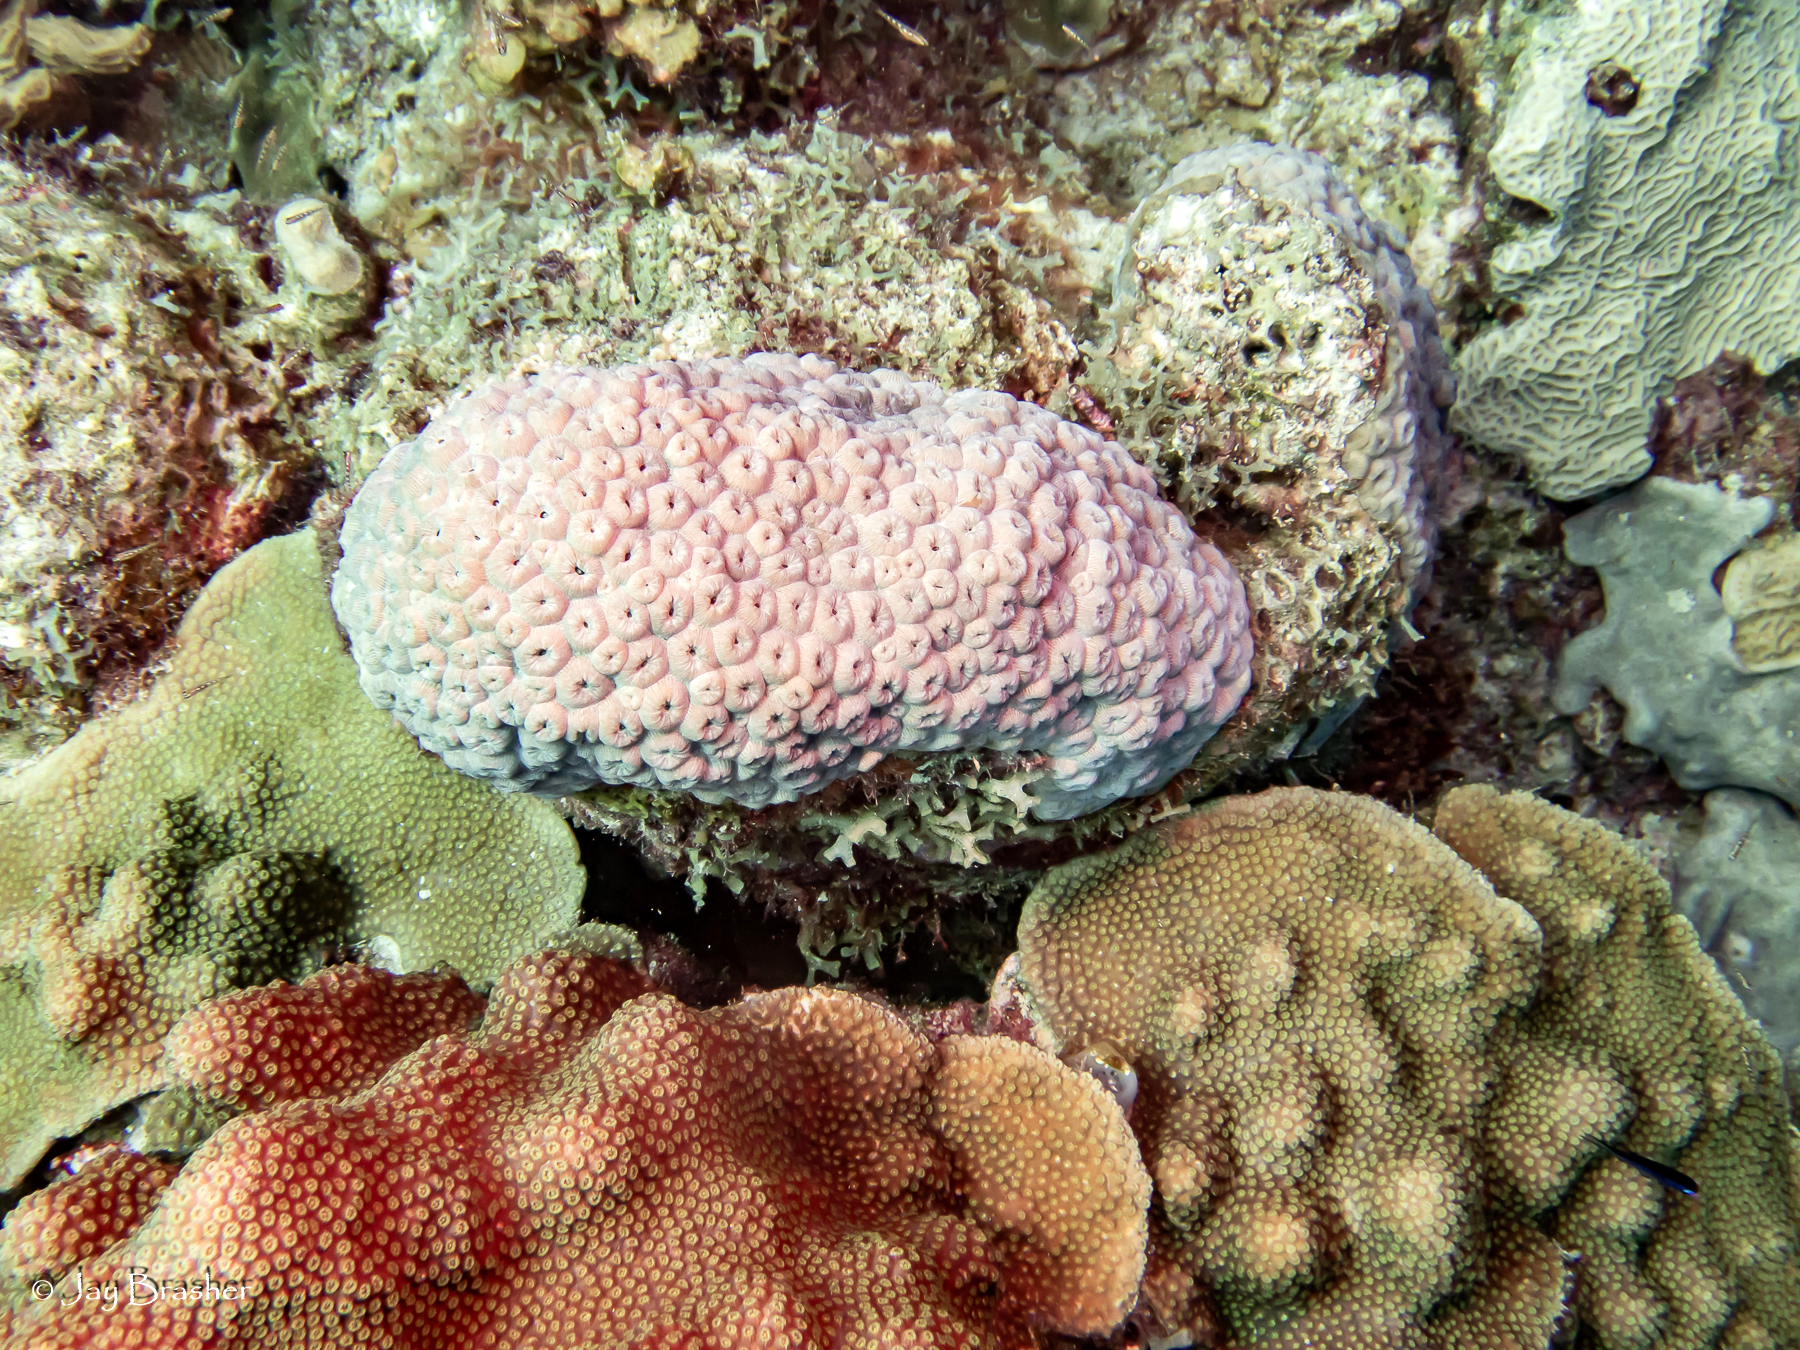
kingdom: Animalia
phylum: Cnidaria
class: Anthozoa
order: Scleractinia
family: Merulinidae
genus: Orbicella
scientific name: Orbicella faveolata
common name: Mountainous star coral
